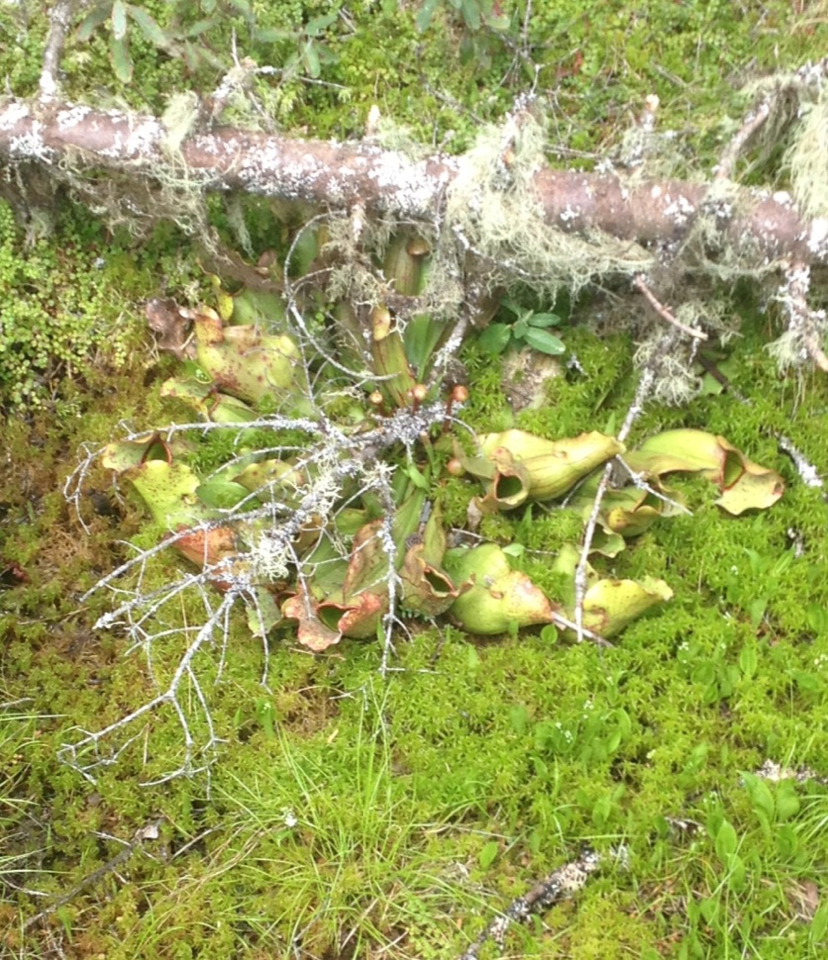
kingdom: Plantae
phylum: Tracheophyta
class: Magnoliopsida
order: Ericales
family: Sarraceniaceae
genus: Sarracenia
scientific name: Sarracenia purpurea
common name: Pitcherplant
